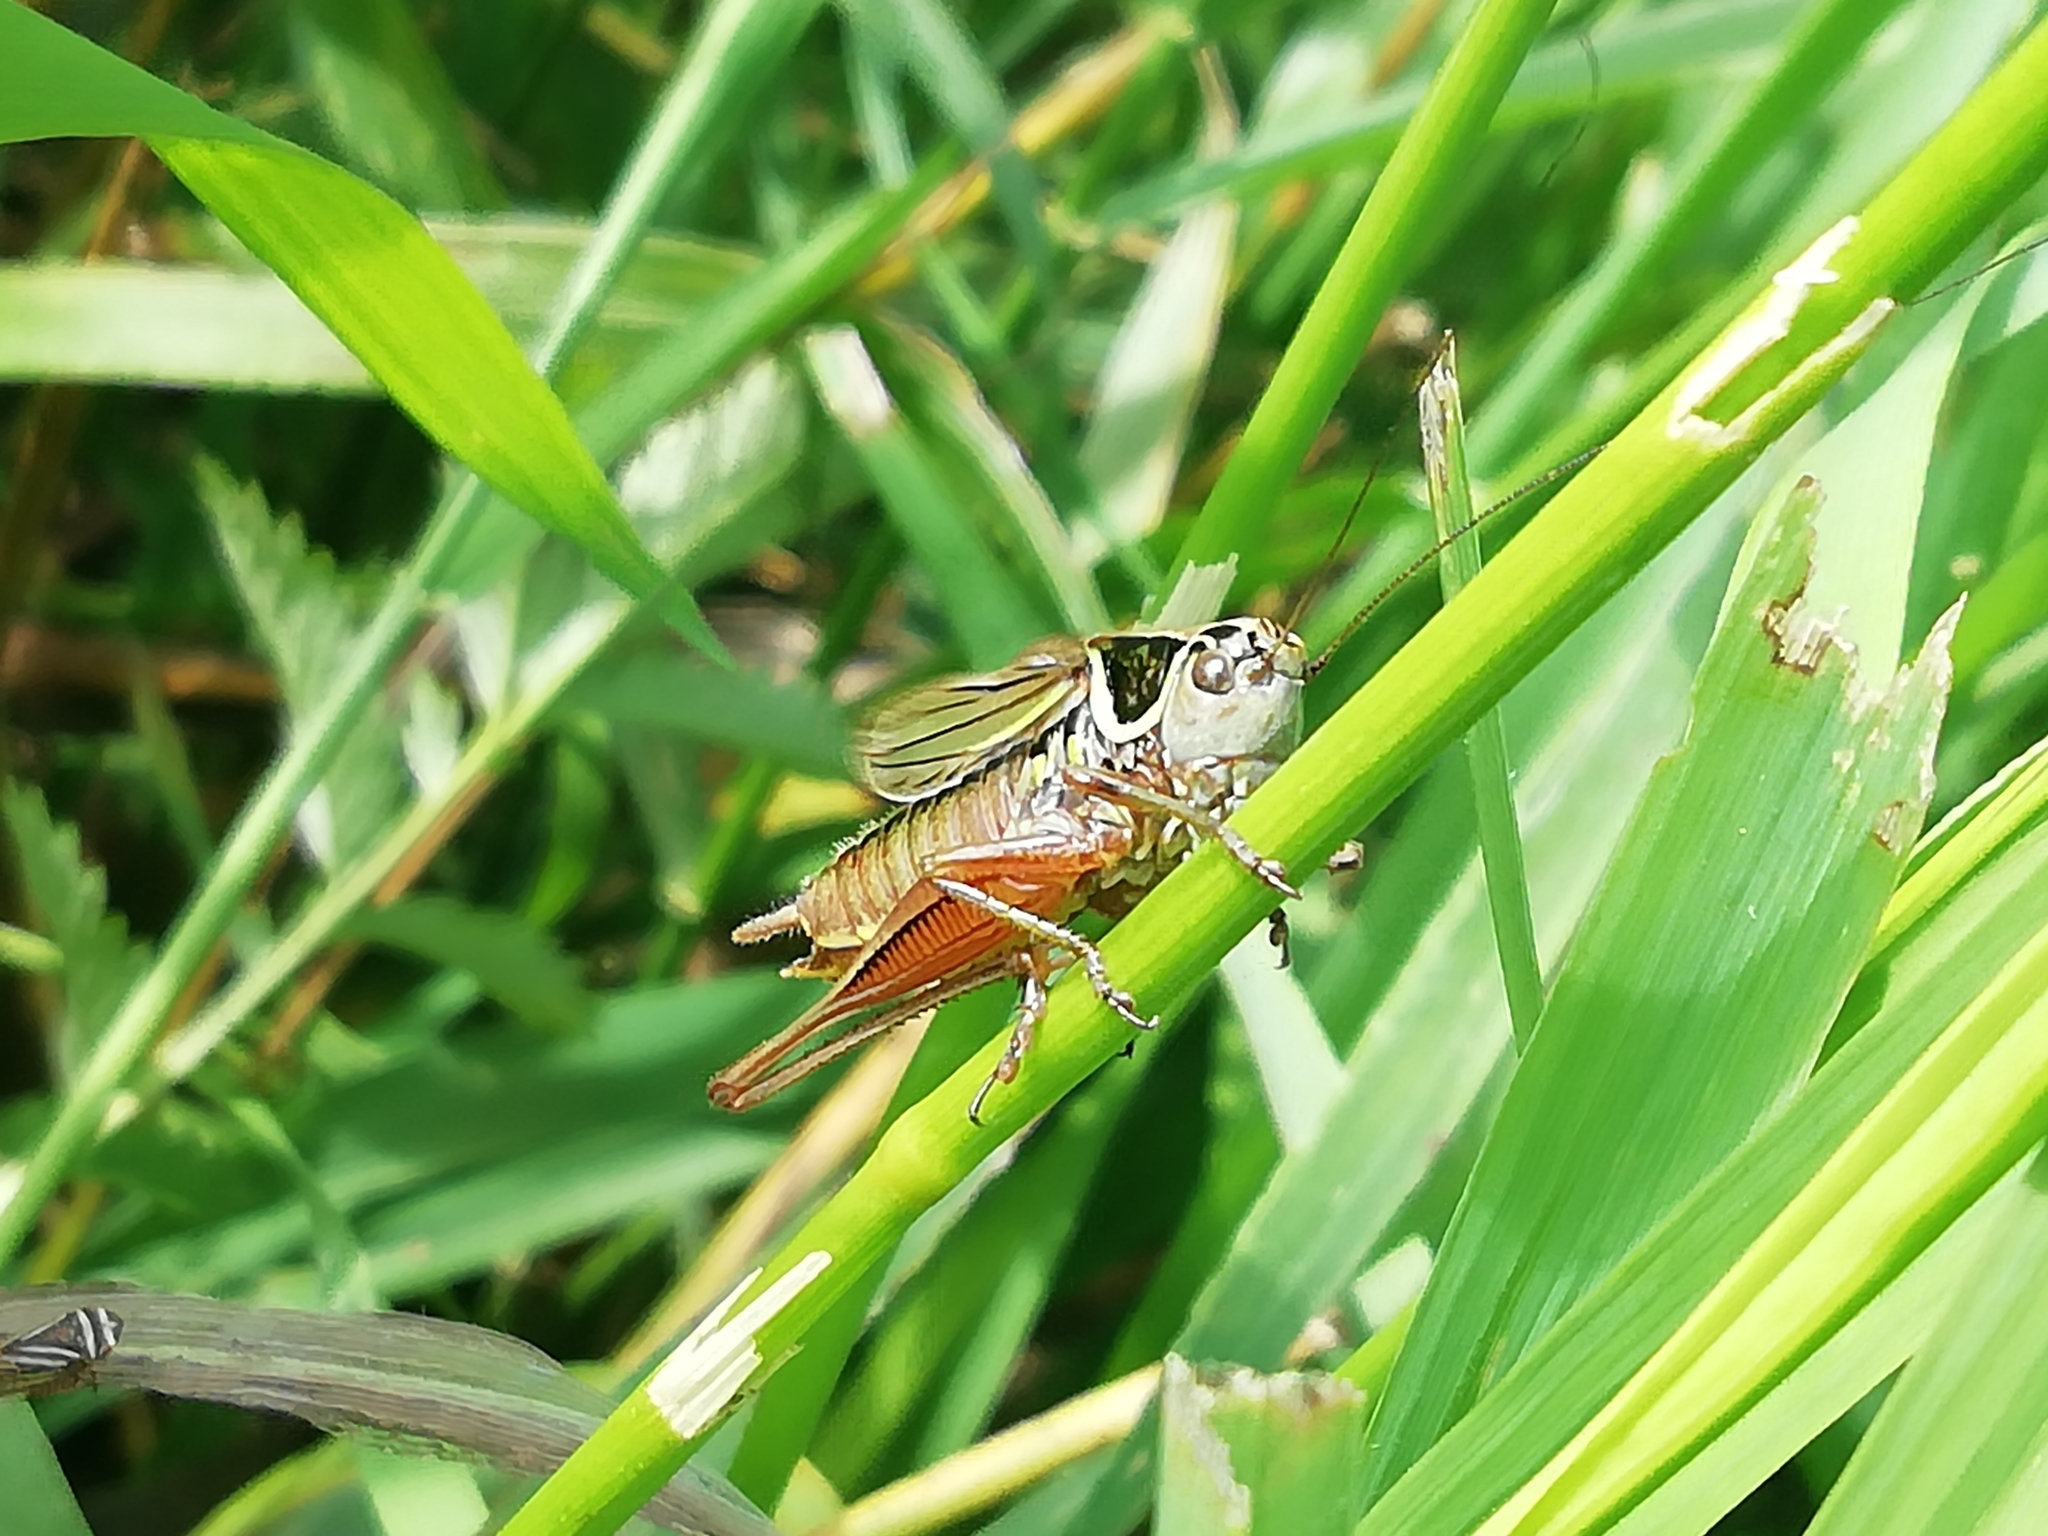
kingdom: Animalia
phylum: Arthropoda
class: Insecta
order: Orthoptera
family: Tettigoniidae
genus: Roeseliana
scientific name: Roeseliana roeselii
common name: Roesel's bush cricket
